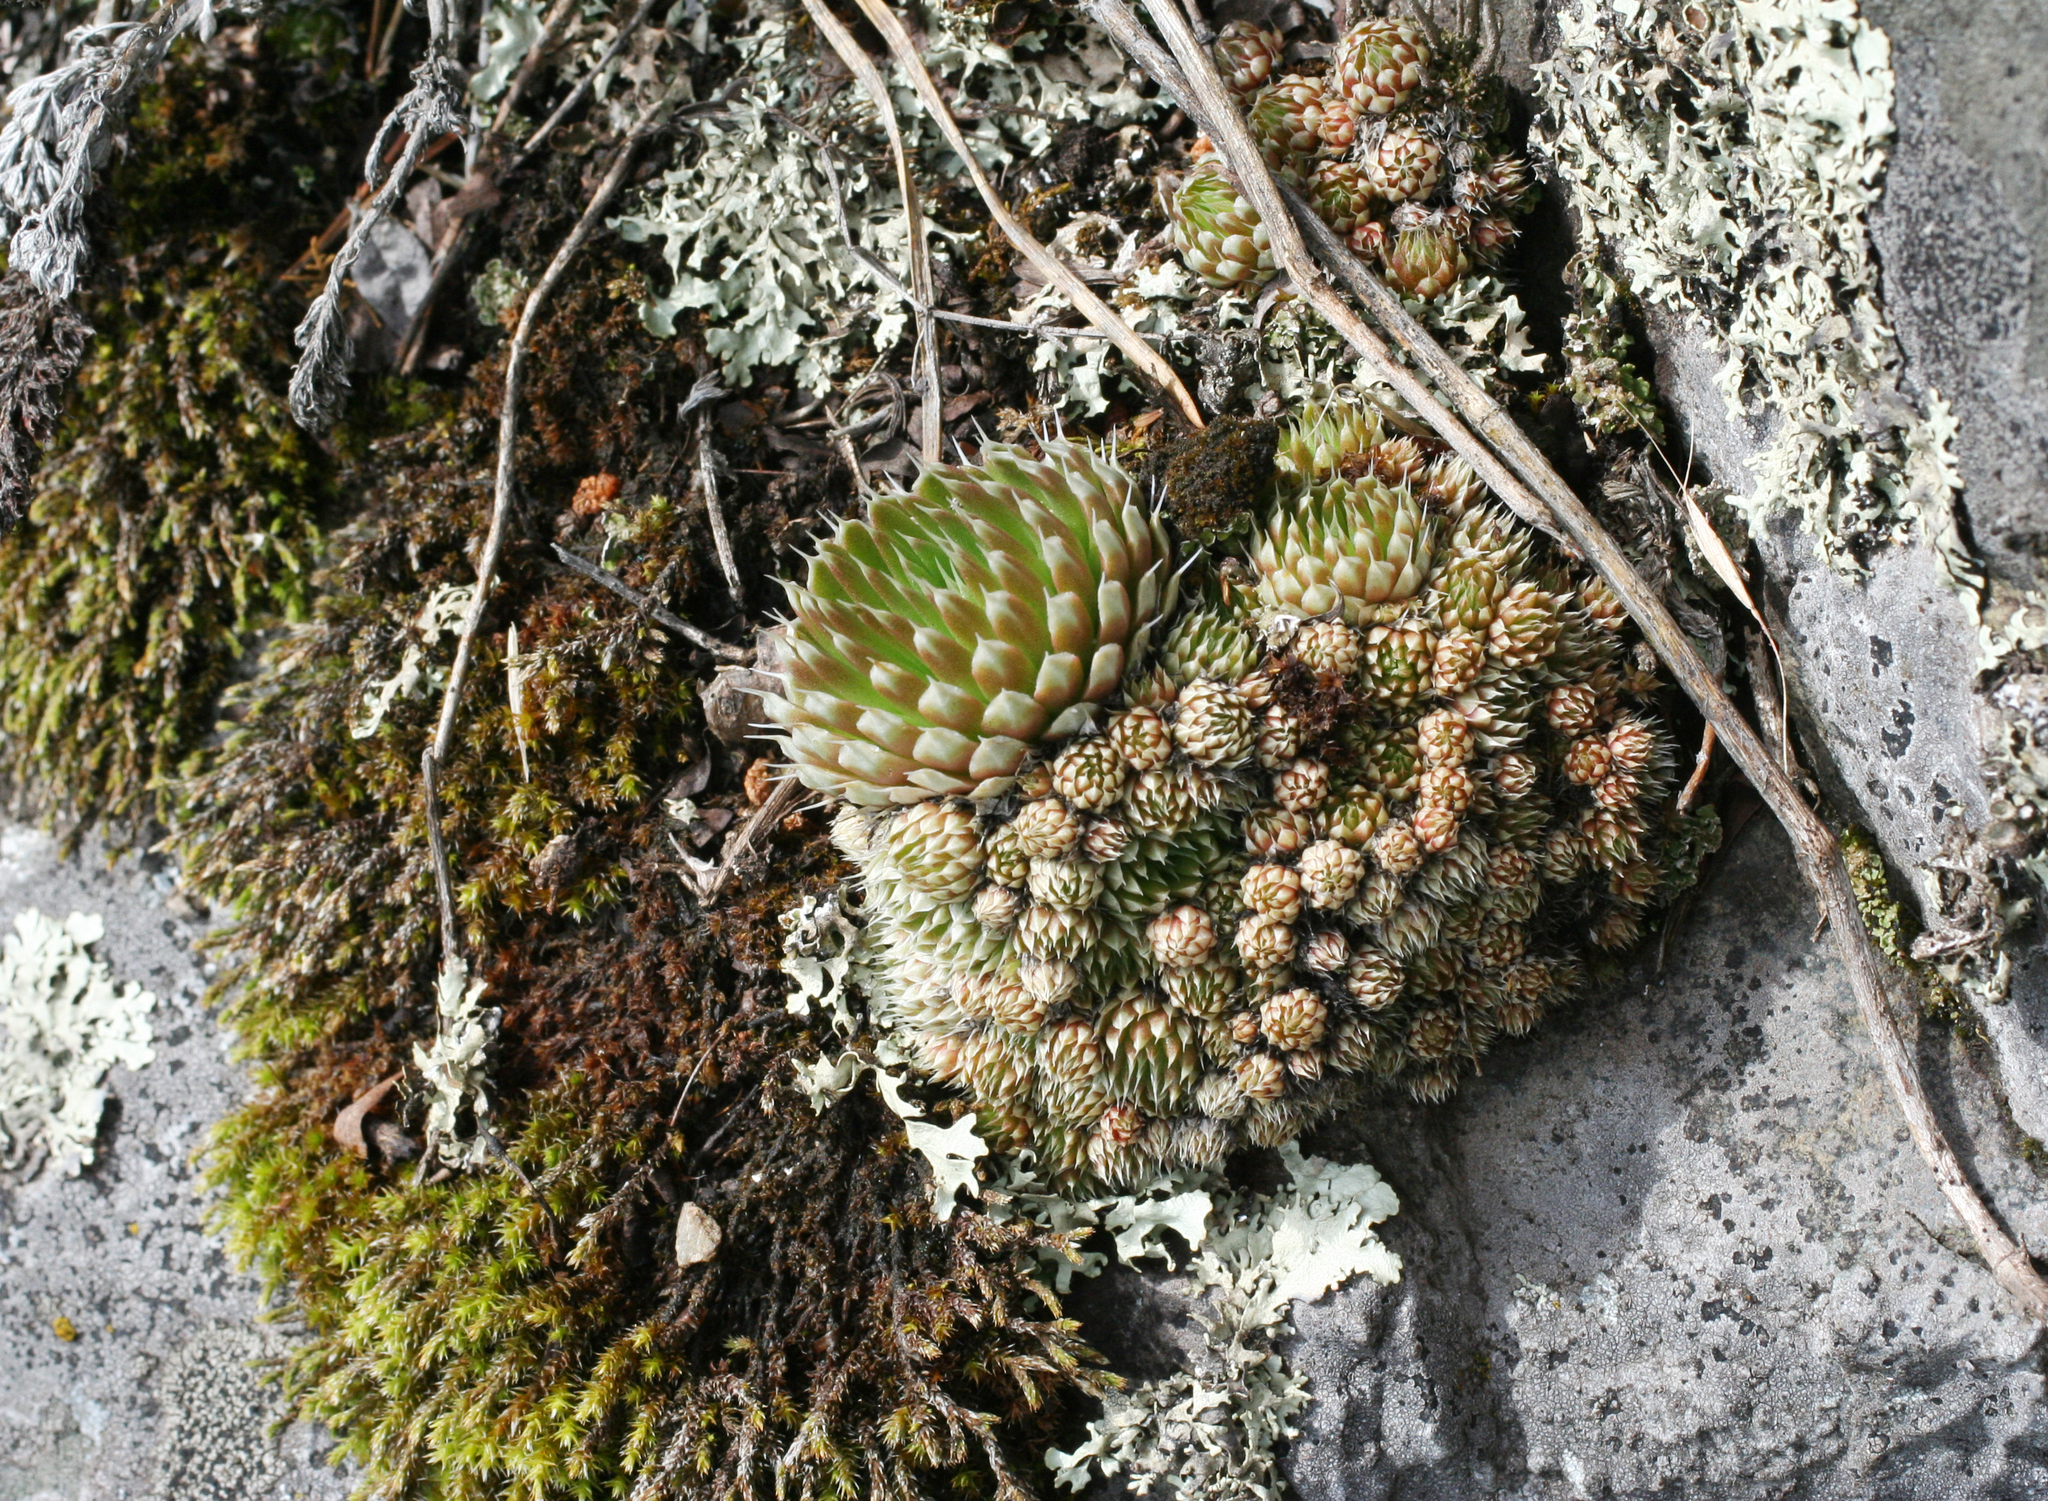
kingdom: Plantae
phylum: Tracheophyta
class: Magnoliopsida
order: Saxifragales
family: Crassulaceae
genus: Orostachys
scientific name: Orostachys spinosa
